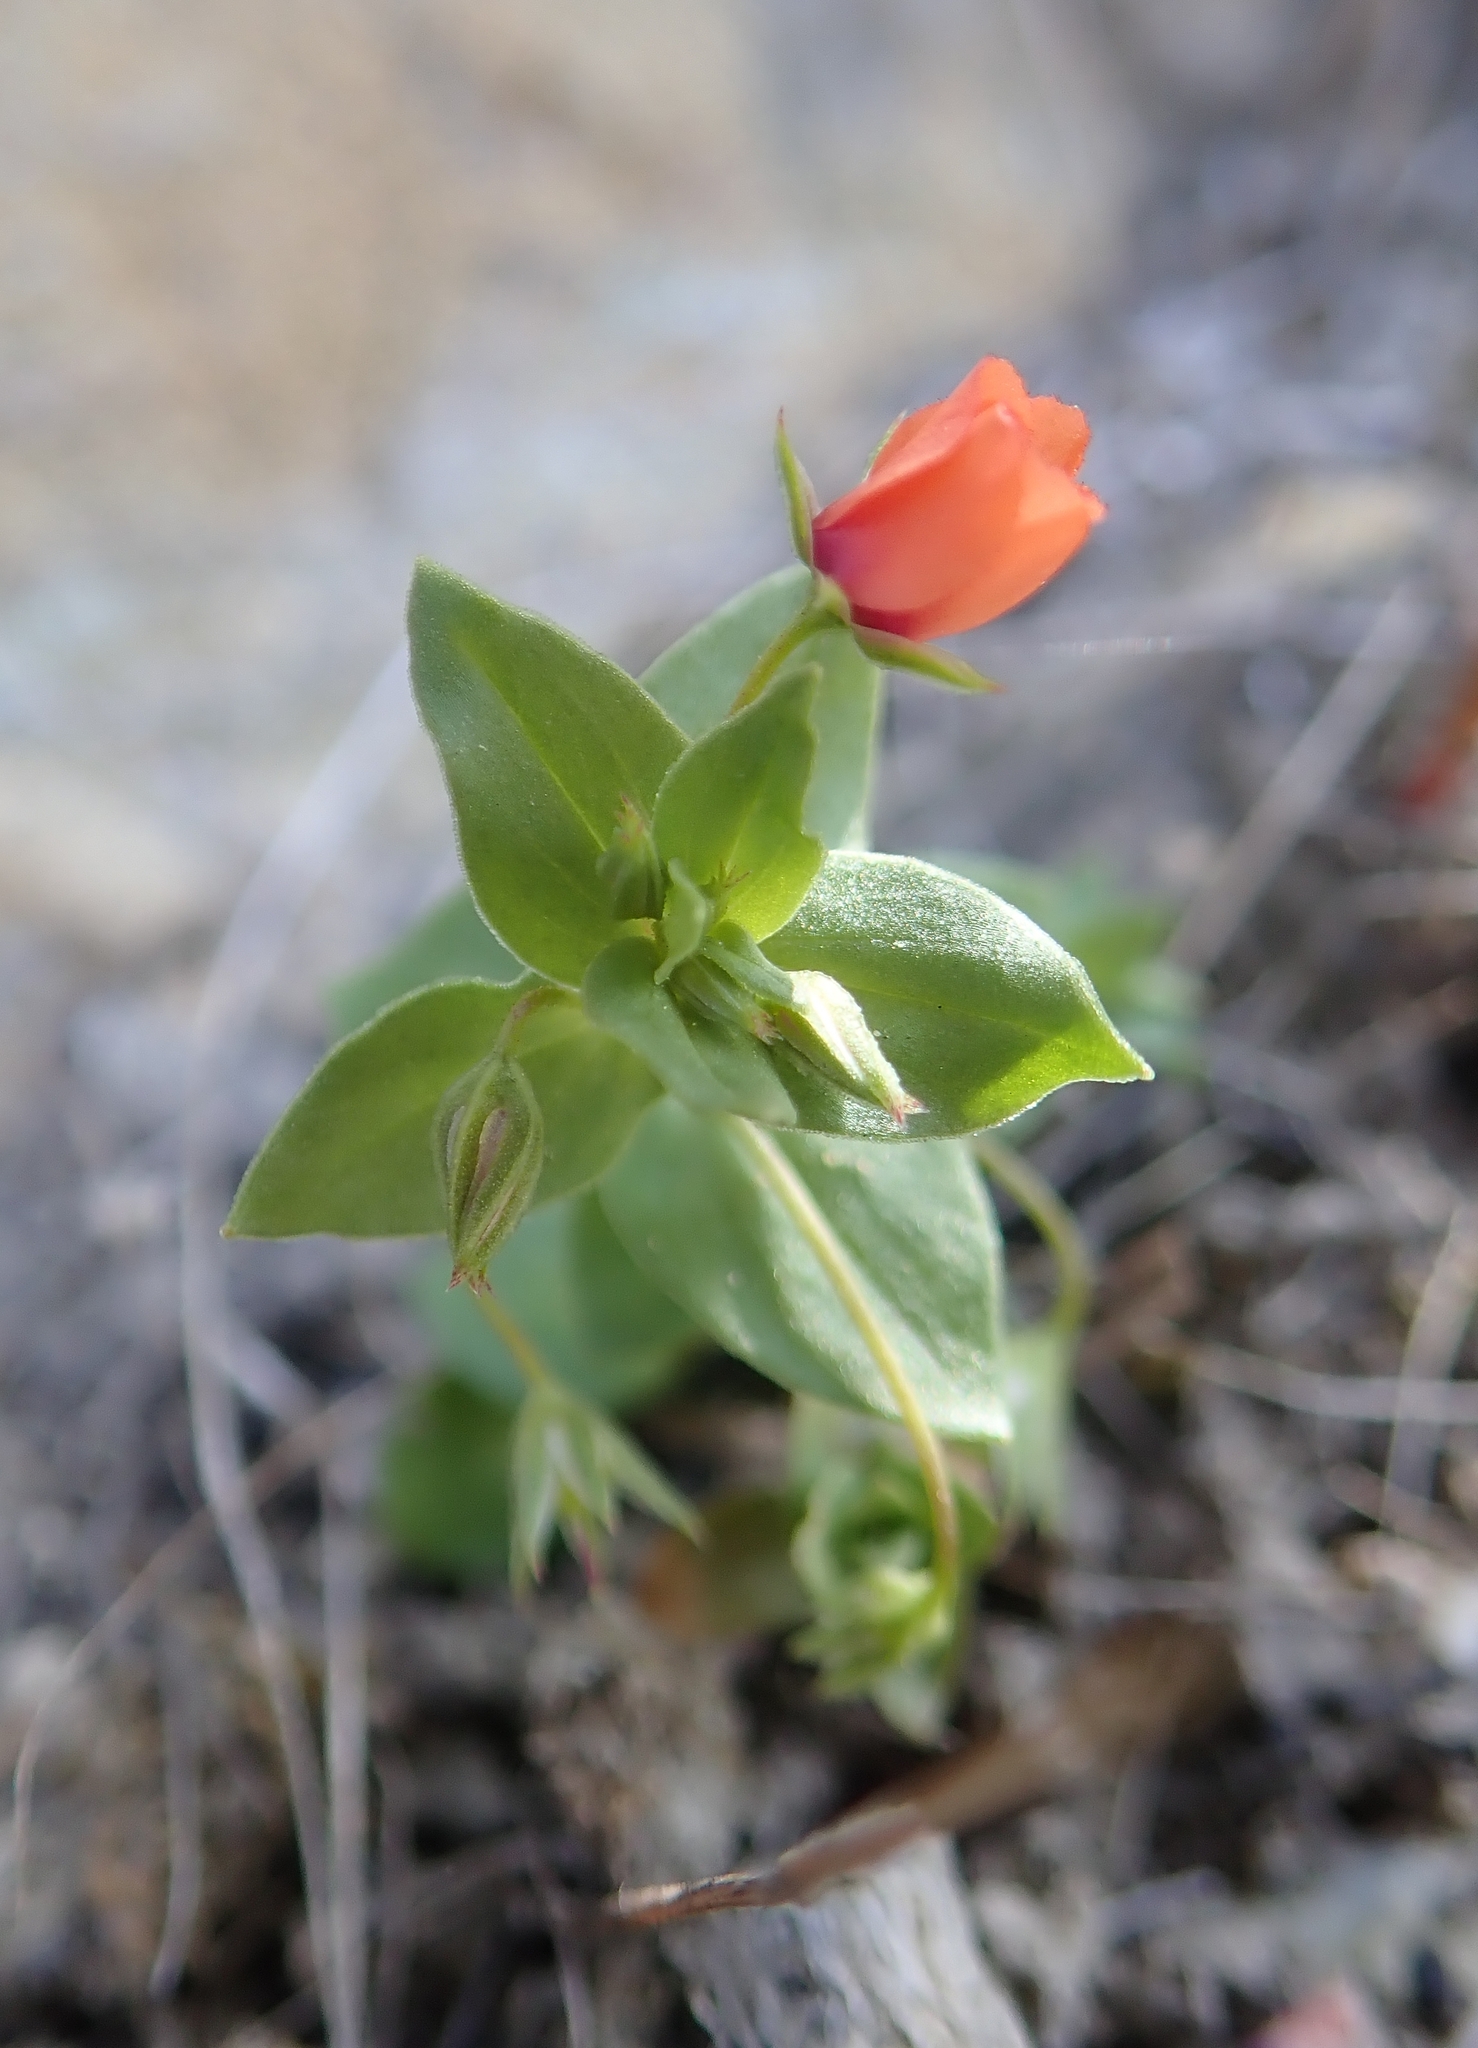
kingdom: Plantae
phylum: Tracheophyta
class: Magnoliopsida
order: Ericales
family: Primulaceae
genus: Lysimachia
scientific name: Lysimachia arvensis
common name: Scarlet pimpernel
